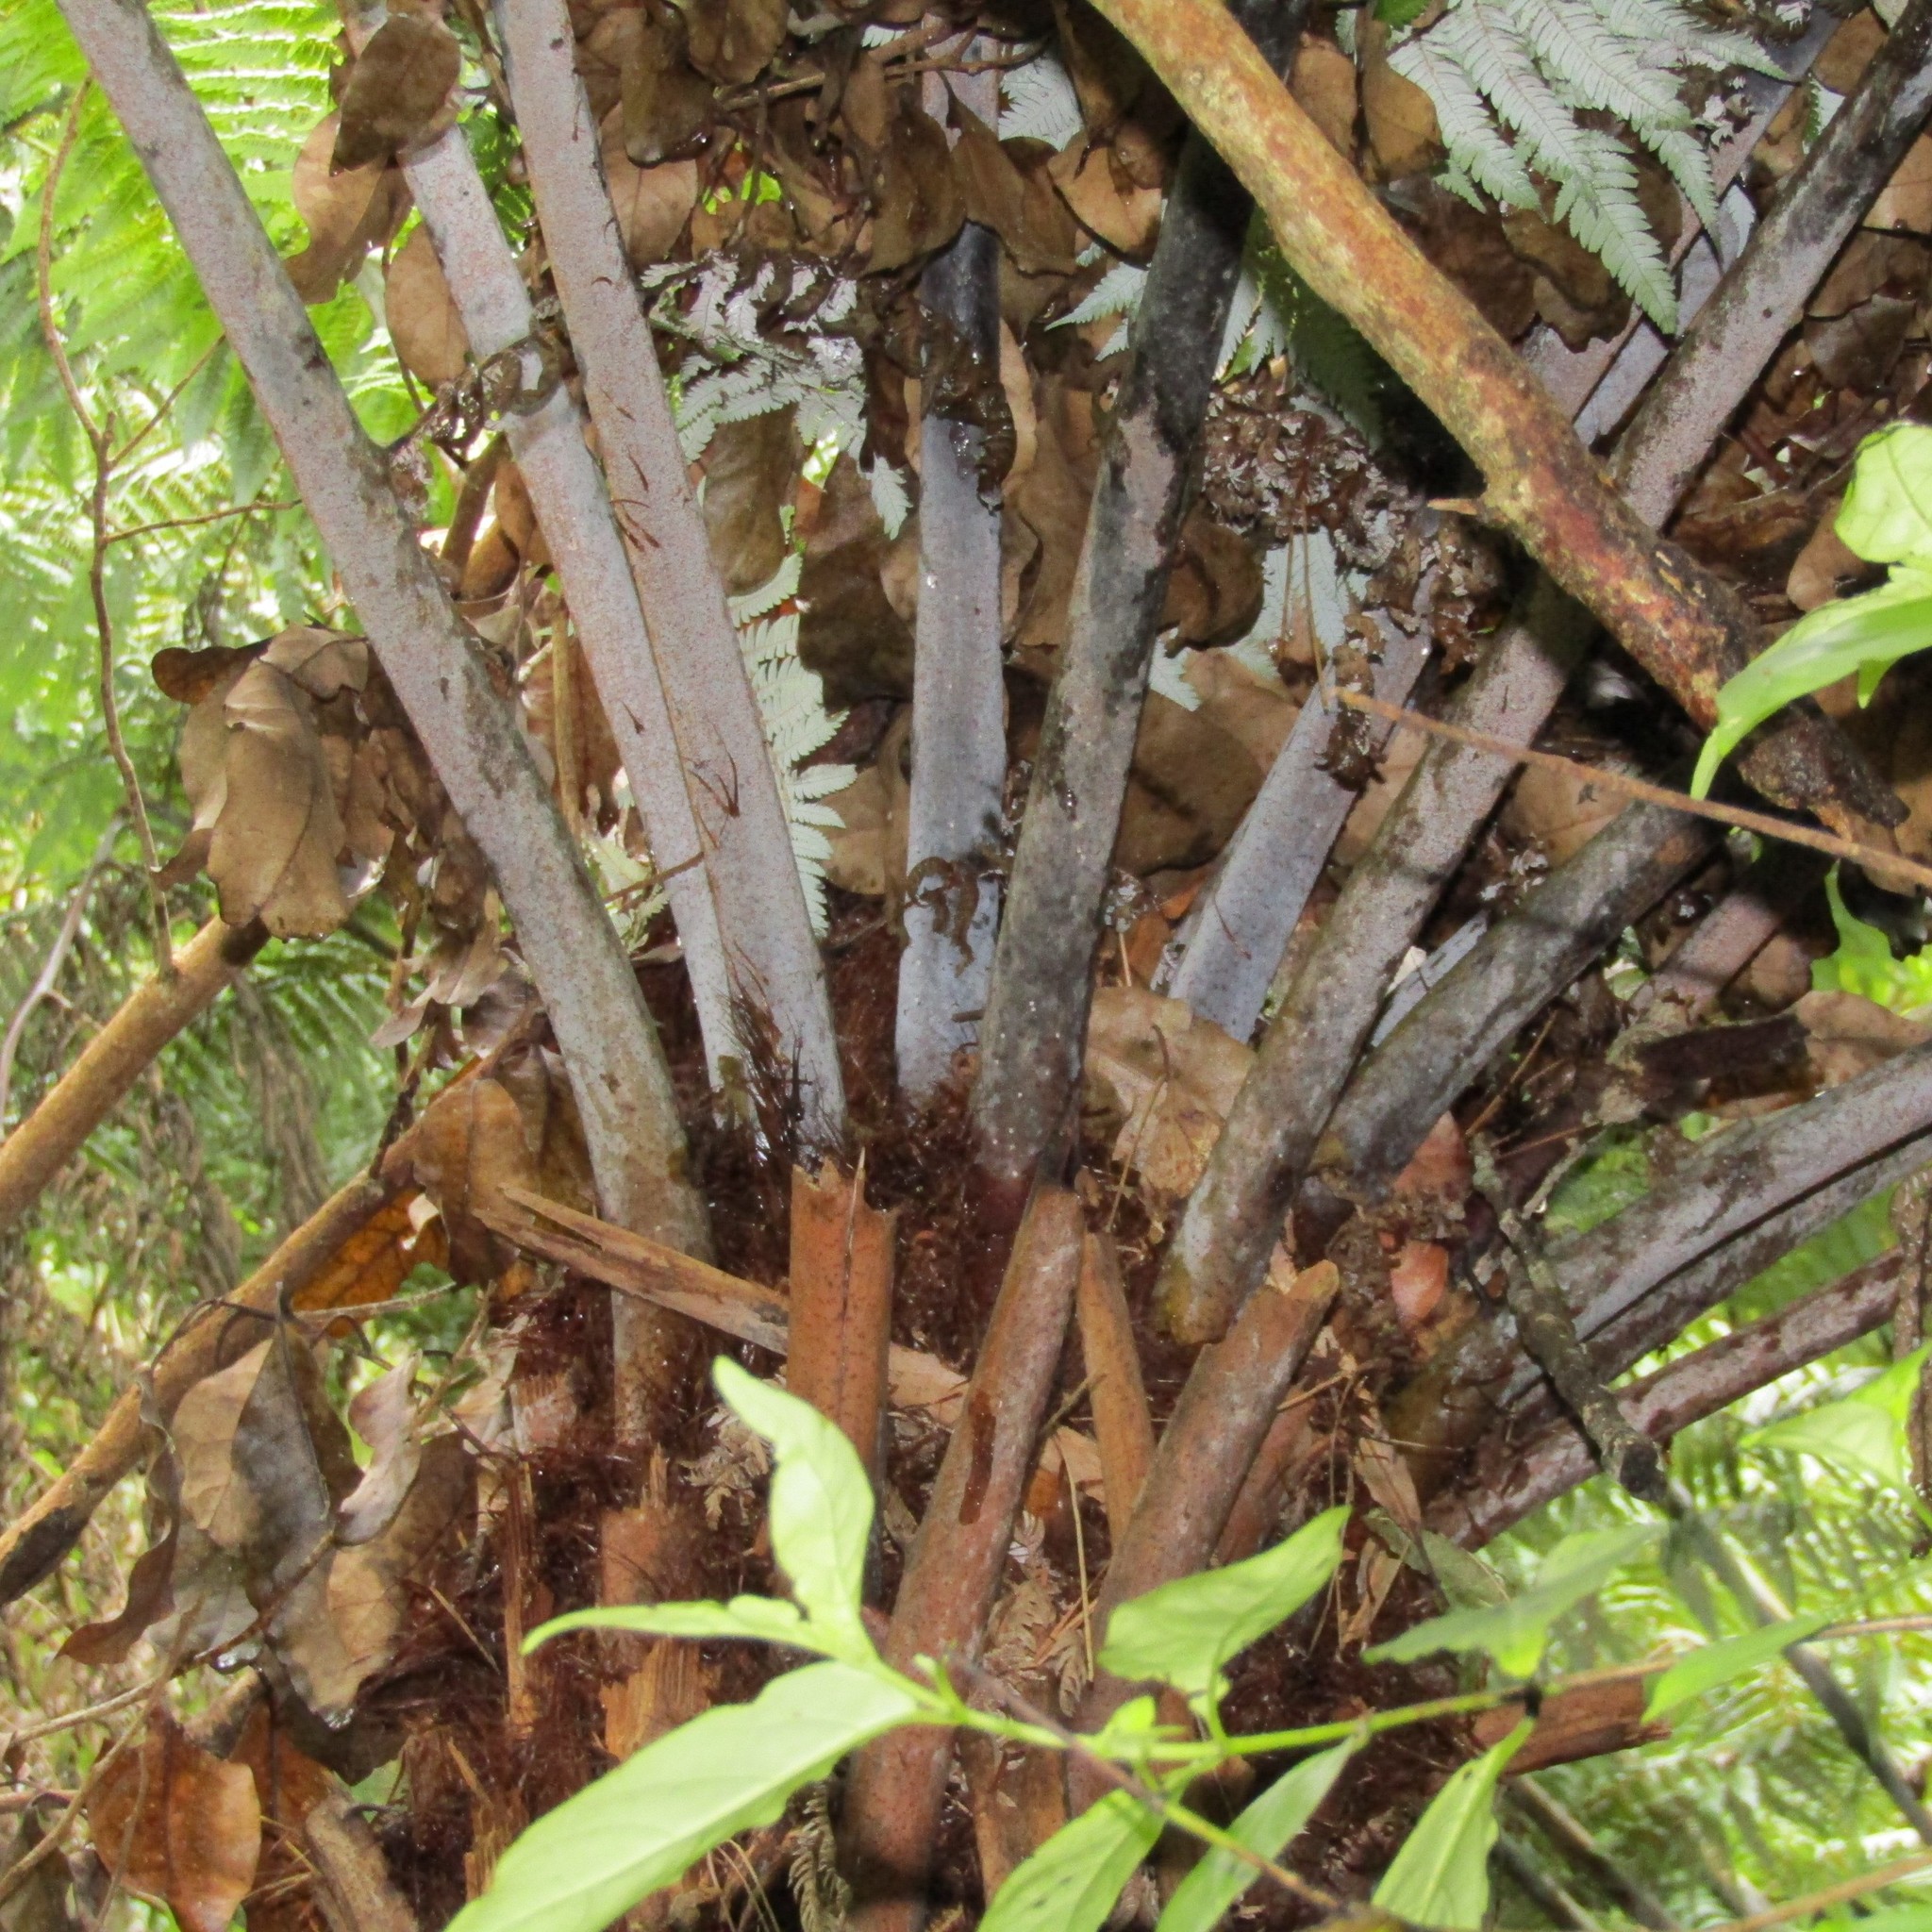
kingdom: Plantae
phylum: Tracheophyta
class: Polypodiopsida
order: Cyatheales
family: Cyatheaceae
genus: Alsophila
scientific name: Alsophila dealbata
